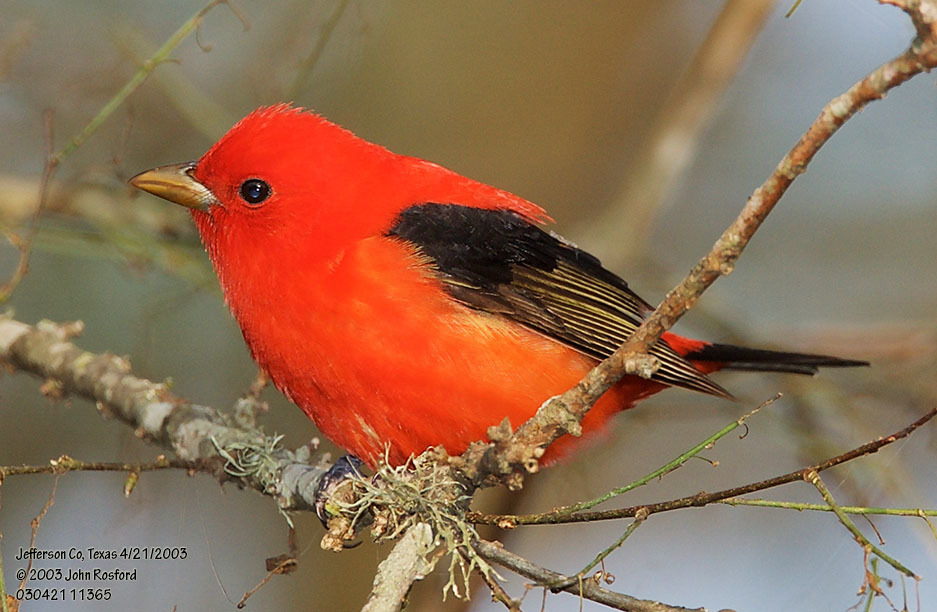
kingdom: Animalia
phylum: Chordata
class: Aves
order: Passeriformes
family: Cardinalidae
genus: Piranga
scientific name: Piranga olivacea
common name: Scarlet tanager
